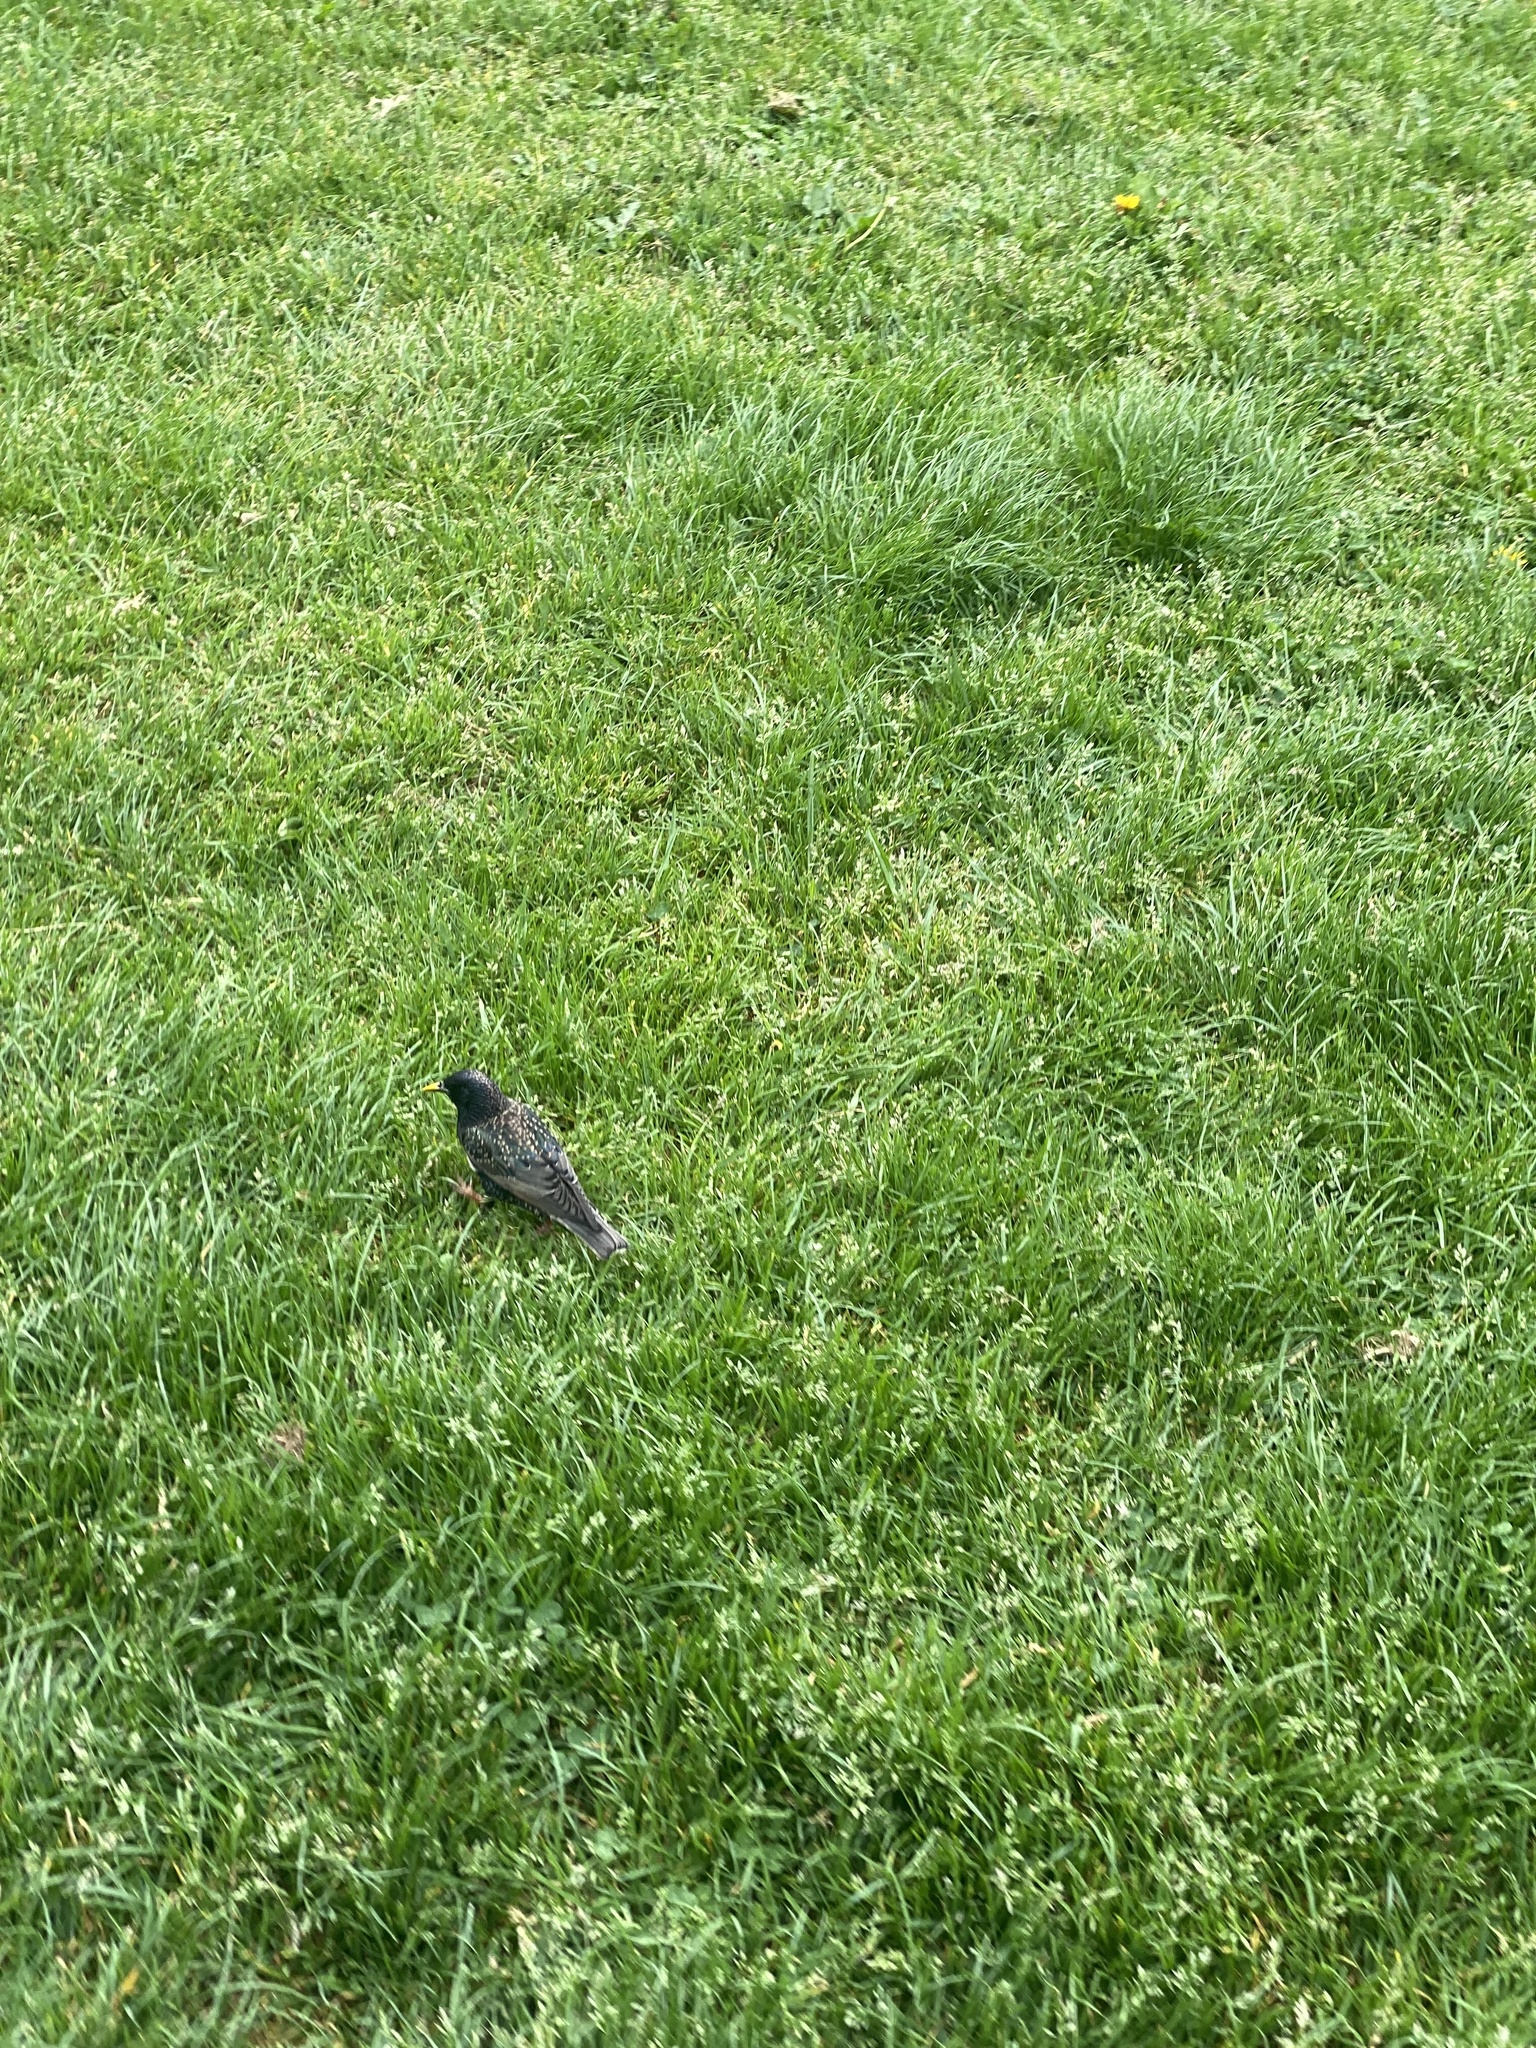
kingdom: Animalia
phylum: Chordata
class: Aves
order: Passeriformes
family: Sturnidae
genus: Sturnus
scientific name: Sturnus vulgaris
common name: Common starling
